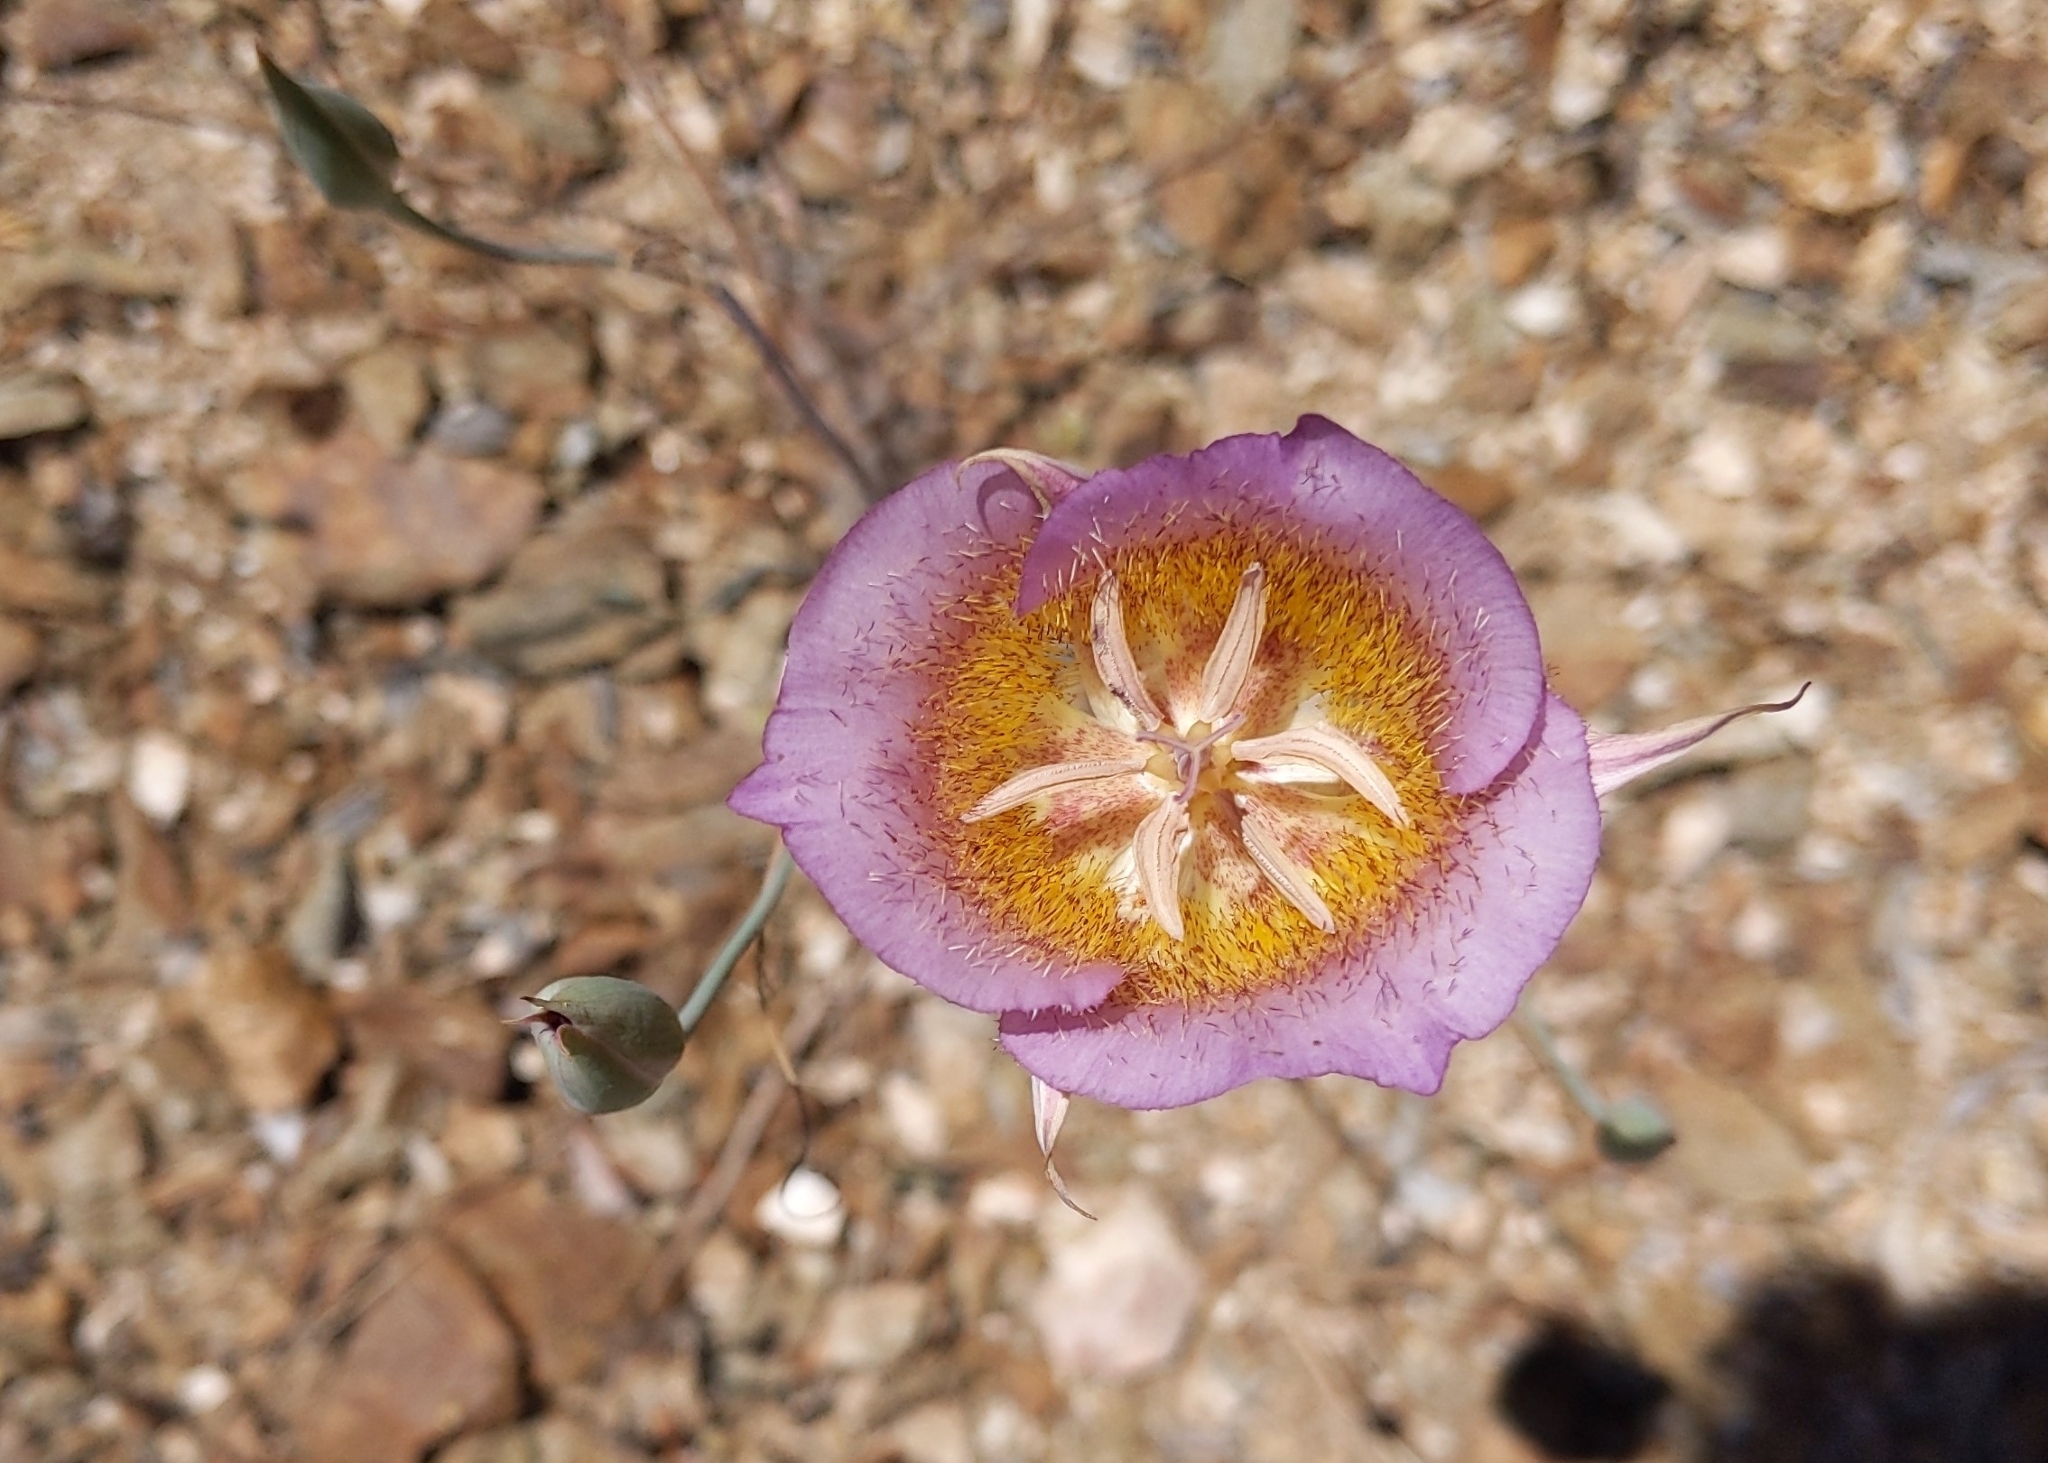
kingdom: Plantae
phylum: Tracheophyta
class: Liliopsida
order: Liliales
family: Liliaceae
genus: Calochortus
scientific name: Calochortus plummerae
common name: Plummer's mariposa-lily
